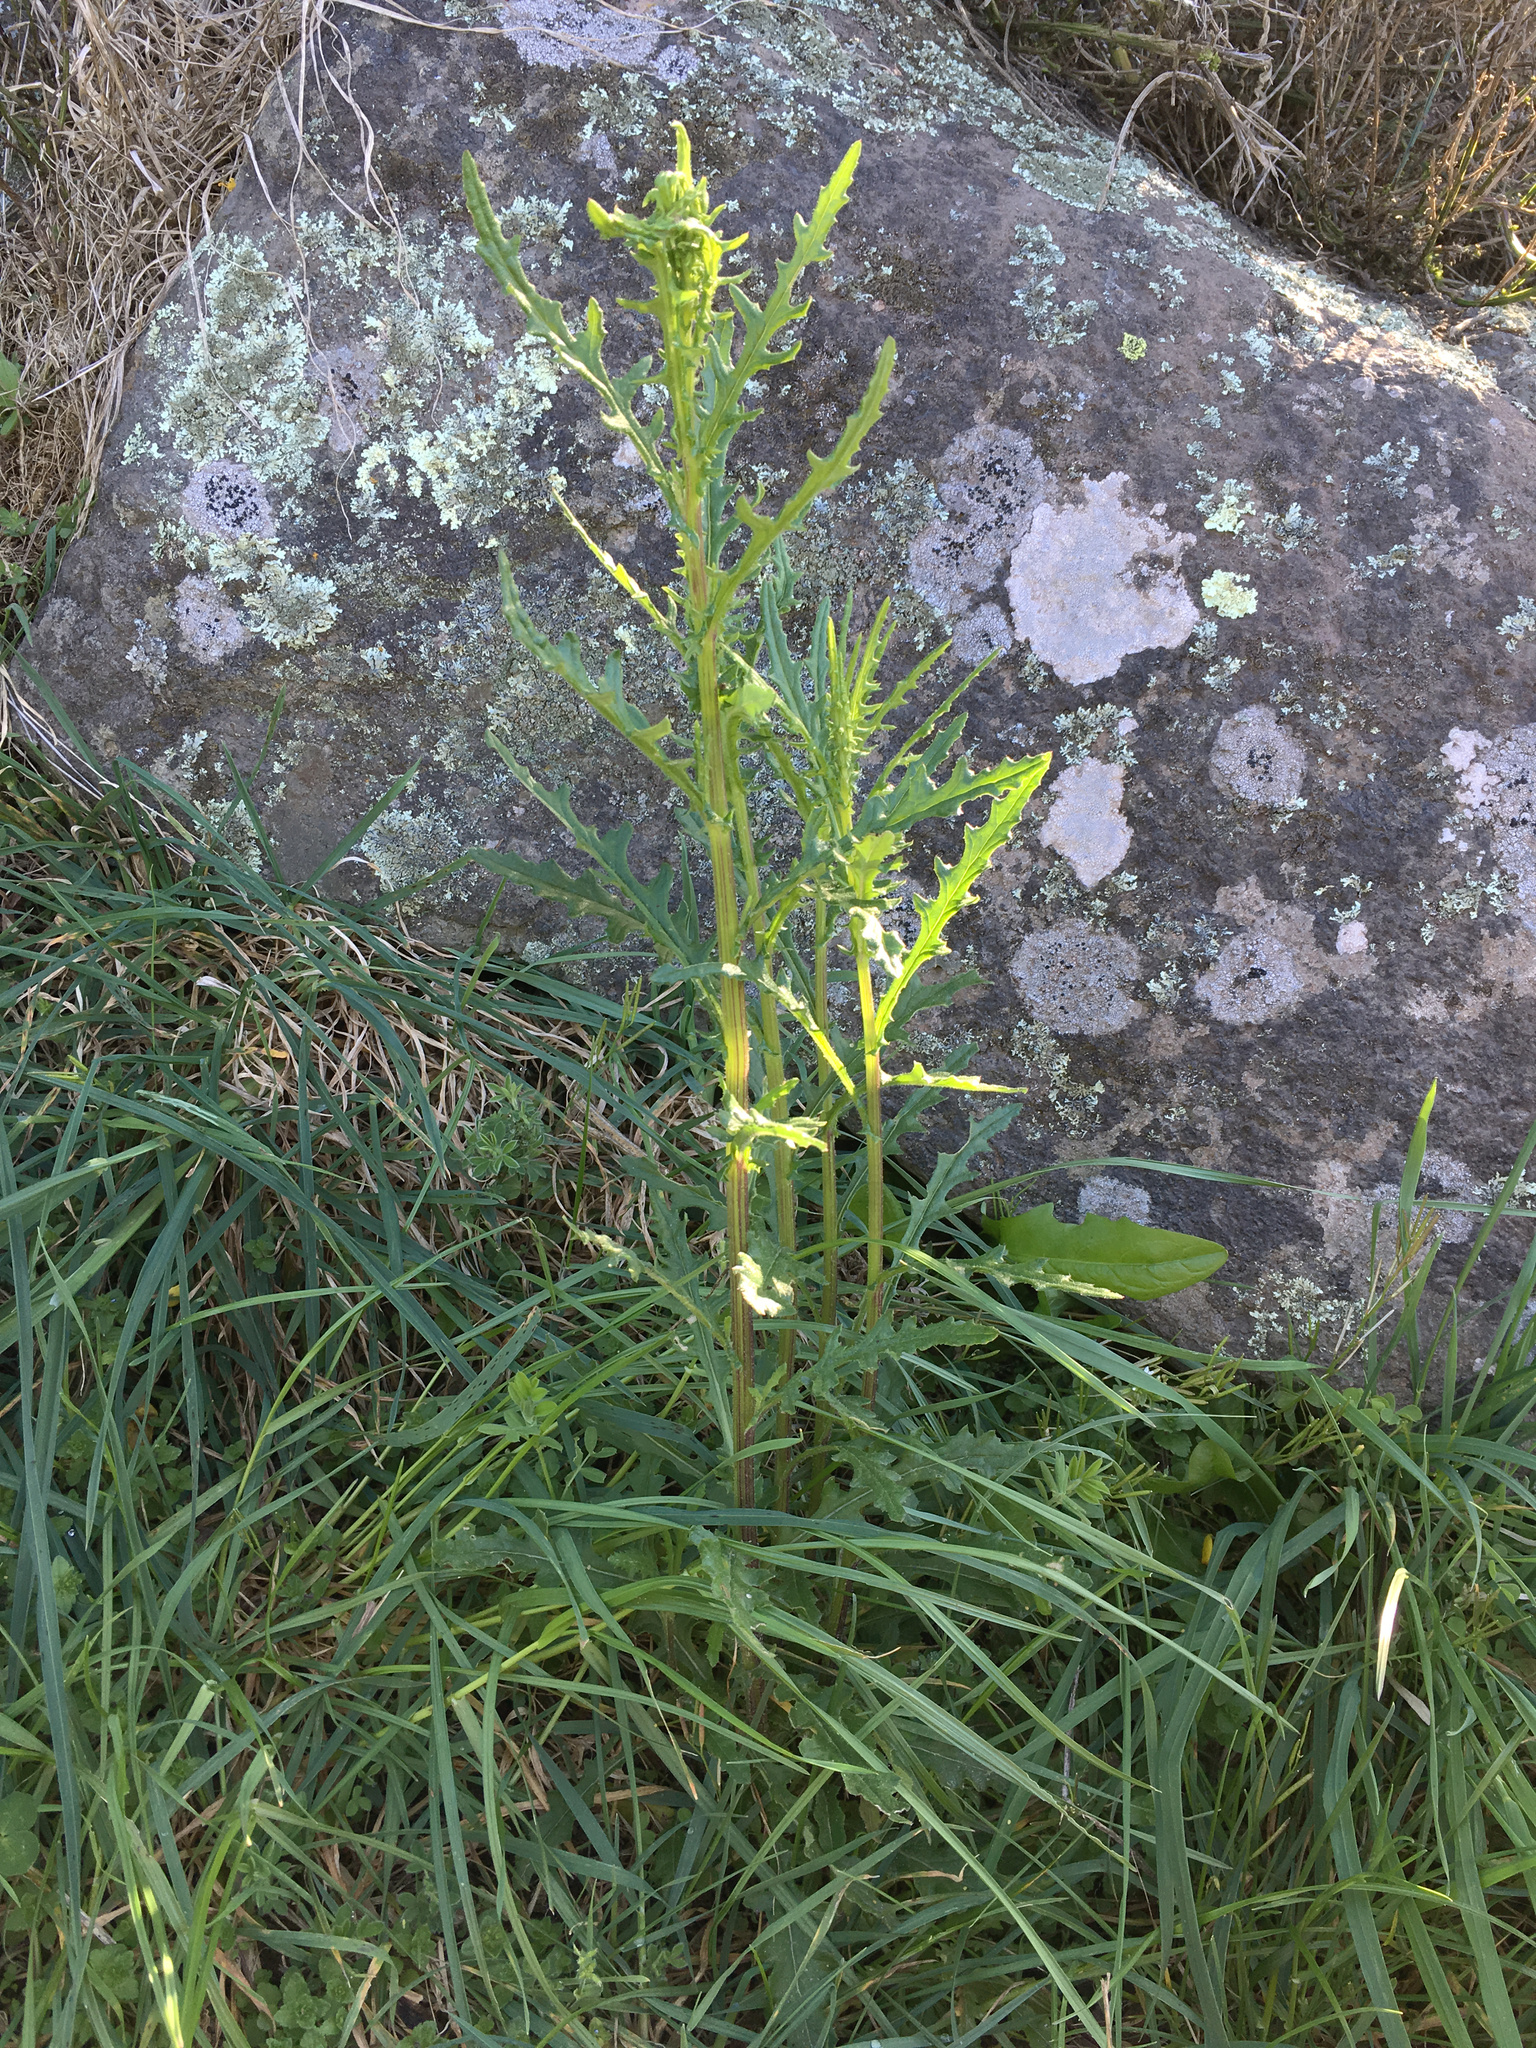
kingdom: Plantae
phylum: Tracheophyta
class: Magnoliopsida
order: Asterales
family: Asteraceae
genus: Senecio
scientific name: Senecio hispidulus
